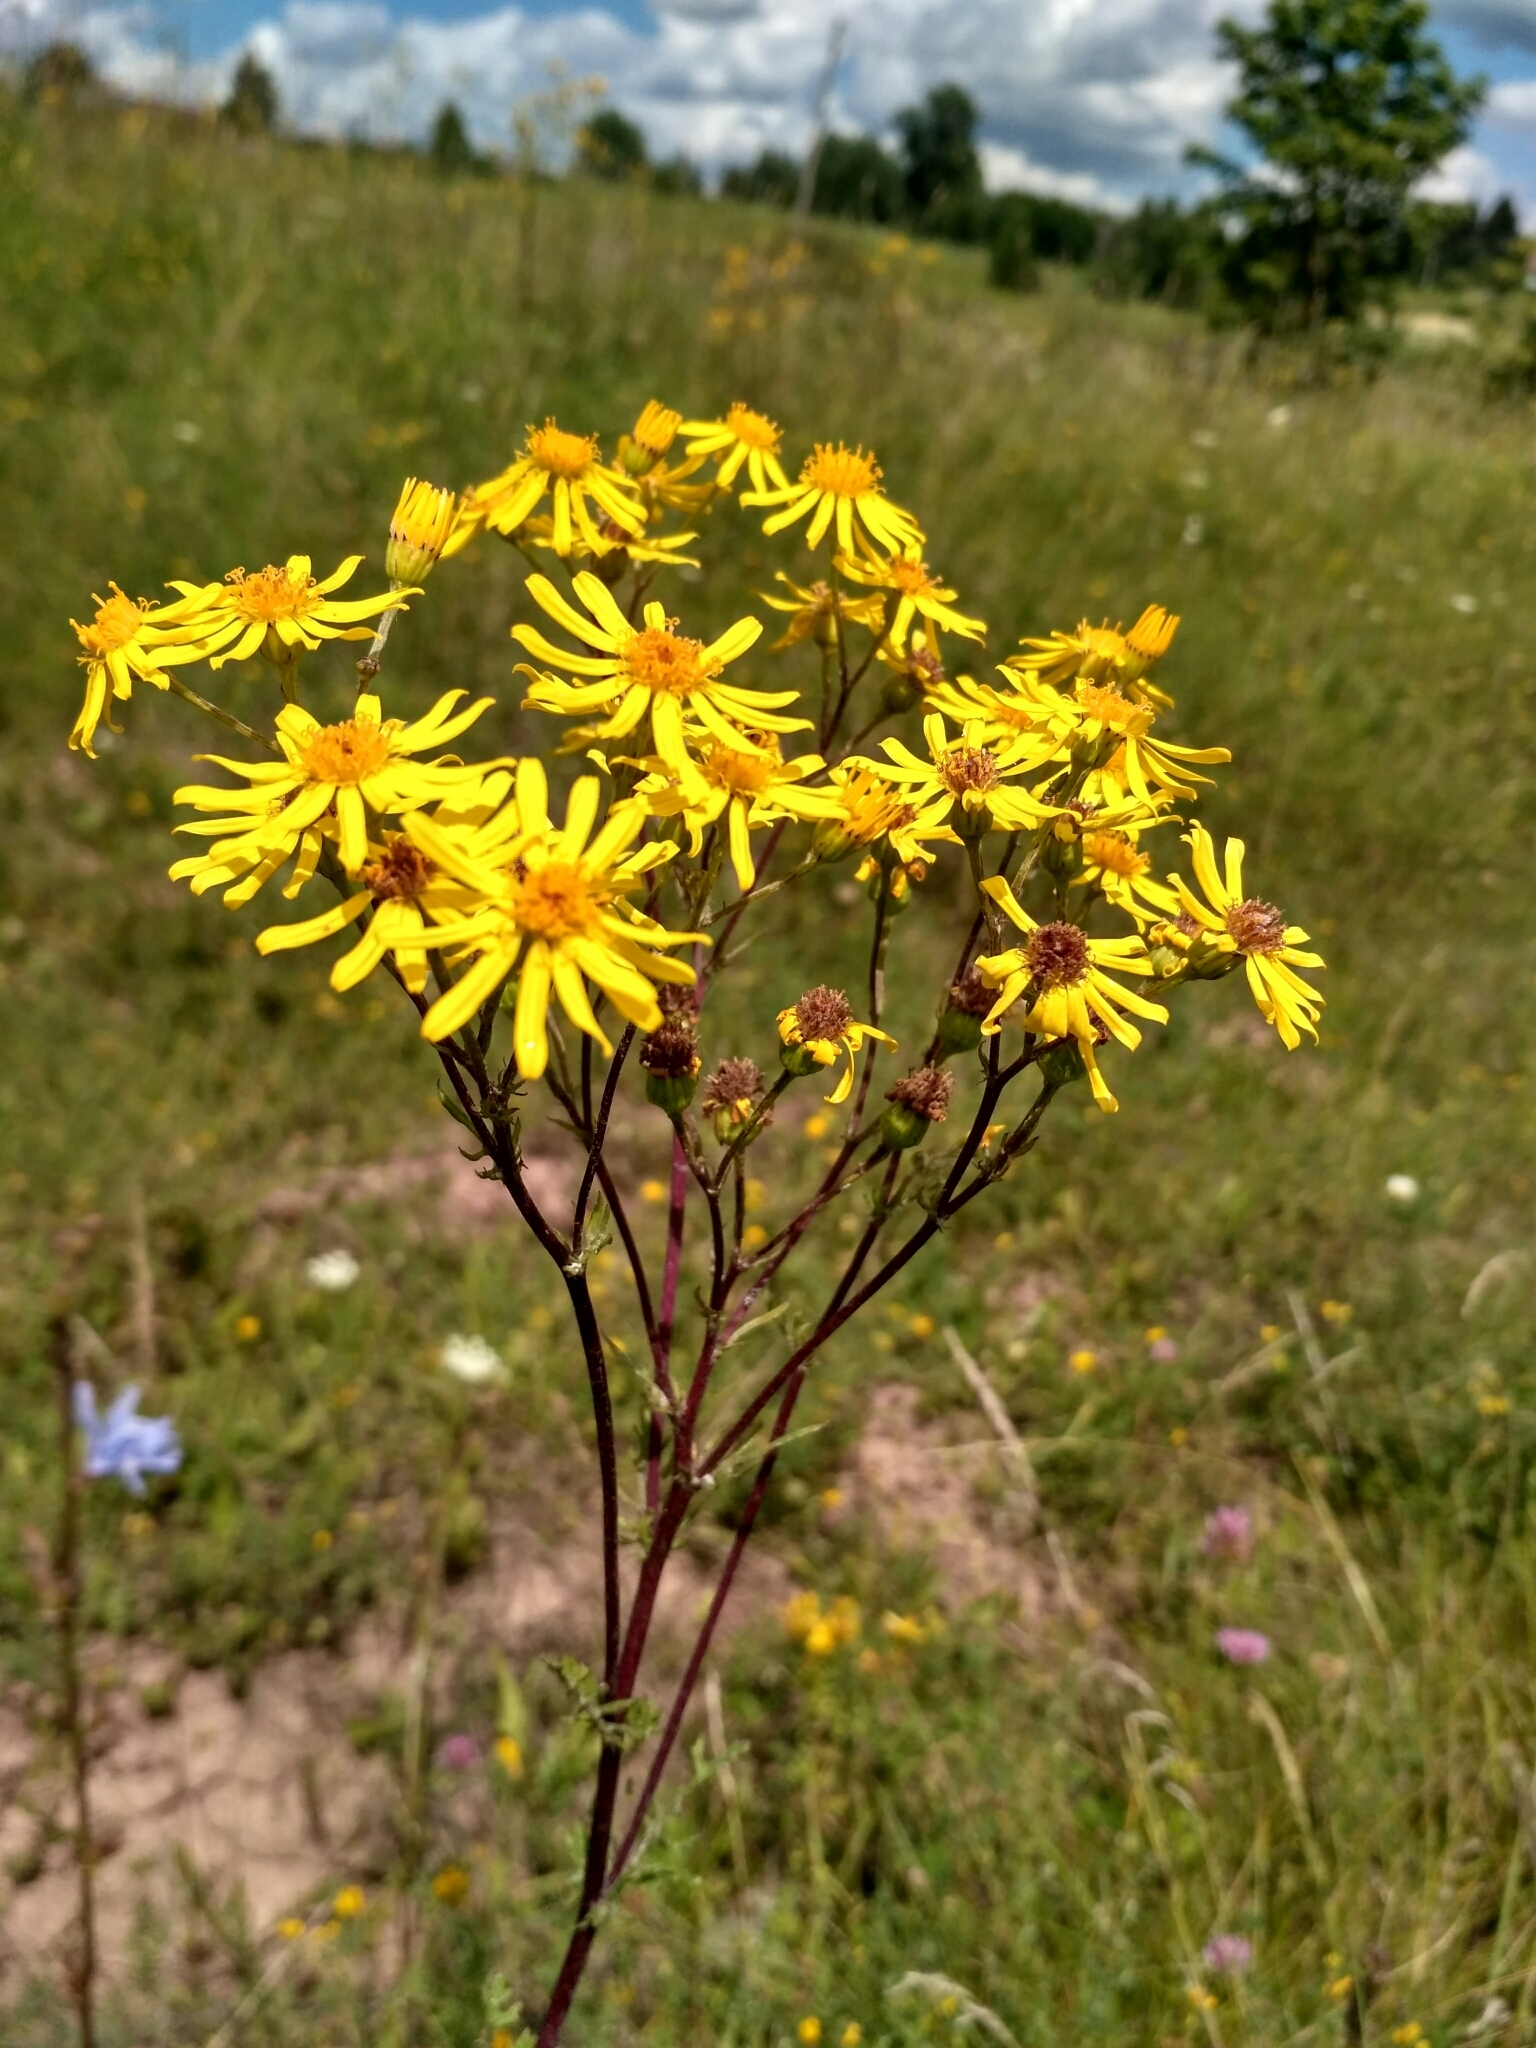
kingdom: Plantae
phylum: Tracheophyta
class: Magnoliopsida
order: Asterales
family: Asteraceae
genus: Jacobaea
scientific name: Jacobaea vulgaris
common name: Stinking willie
